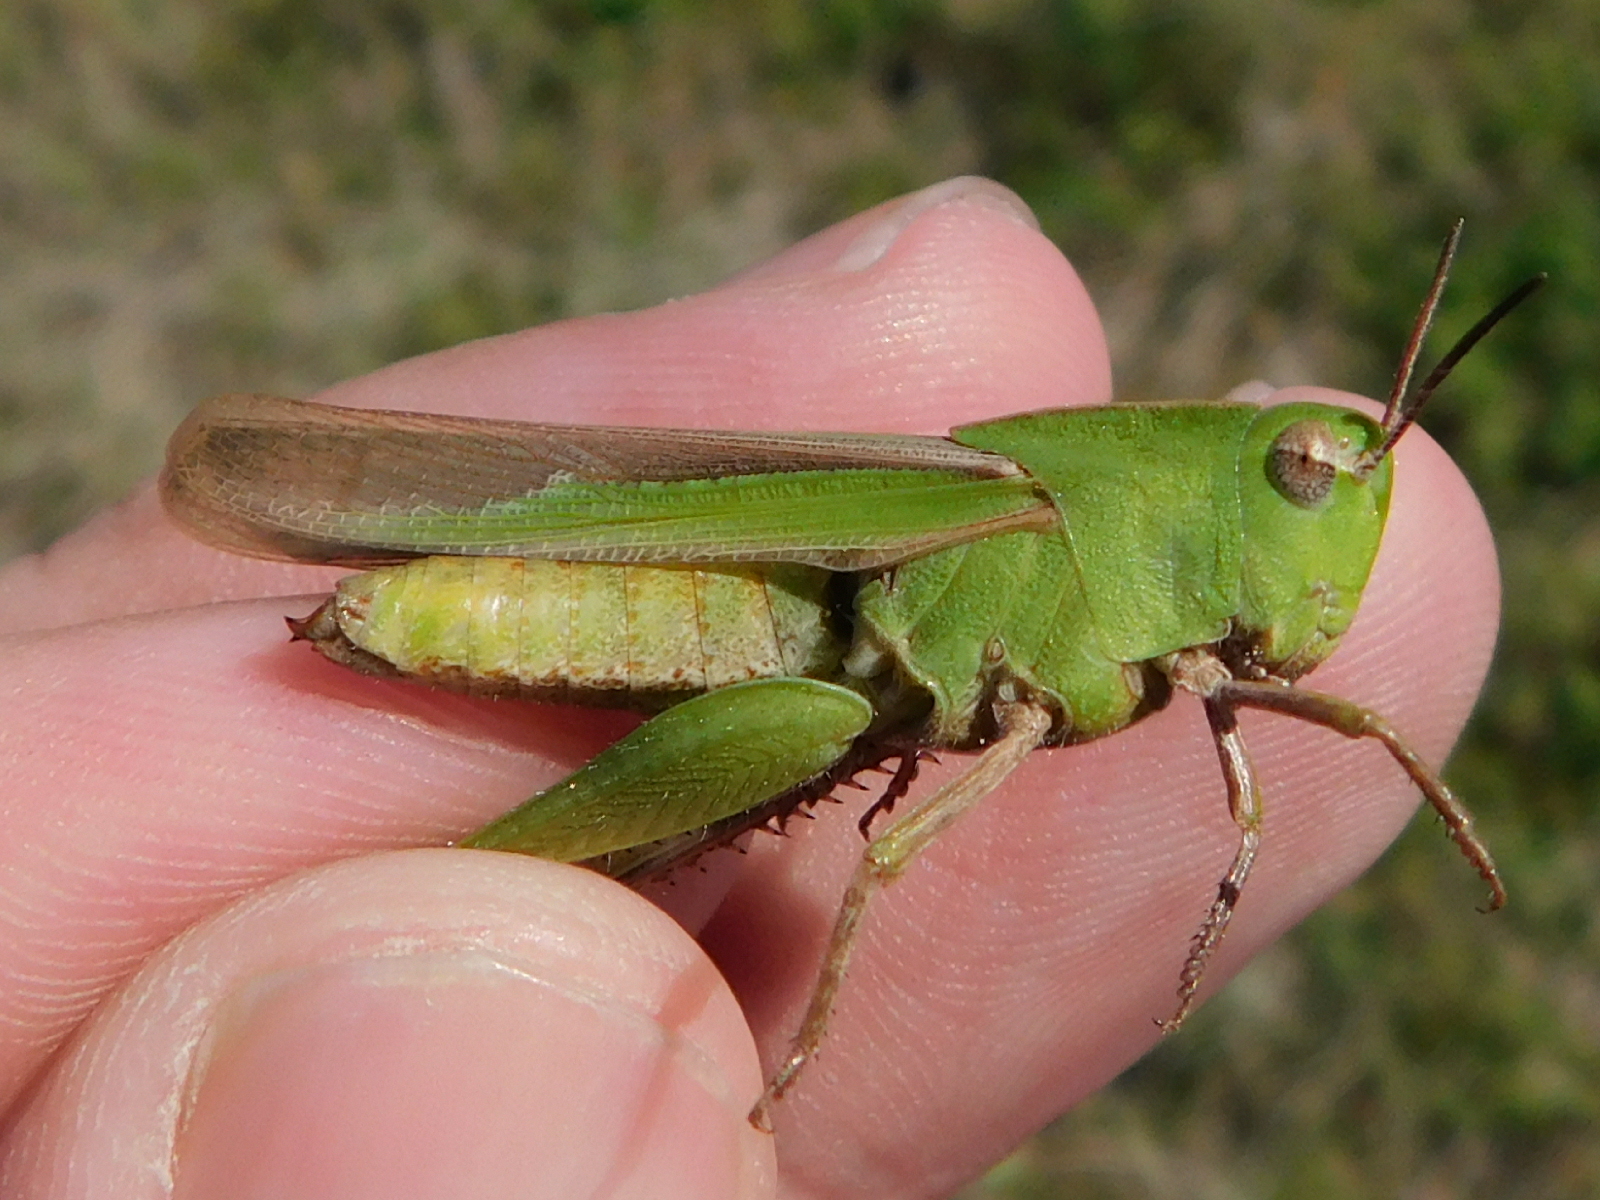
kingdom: Animalia
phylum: Arthropoda
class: Insecta
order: Orthoptera
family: Acrididae
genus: Chortophaga
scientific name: Chortophaga viridifasciata
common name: Green-striped grasshopper
